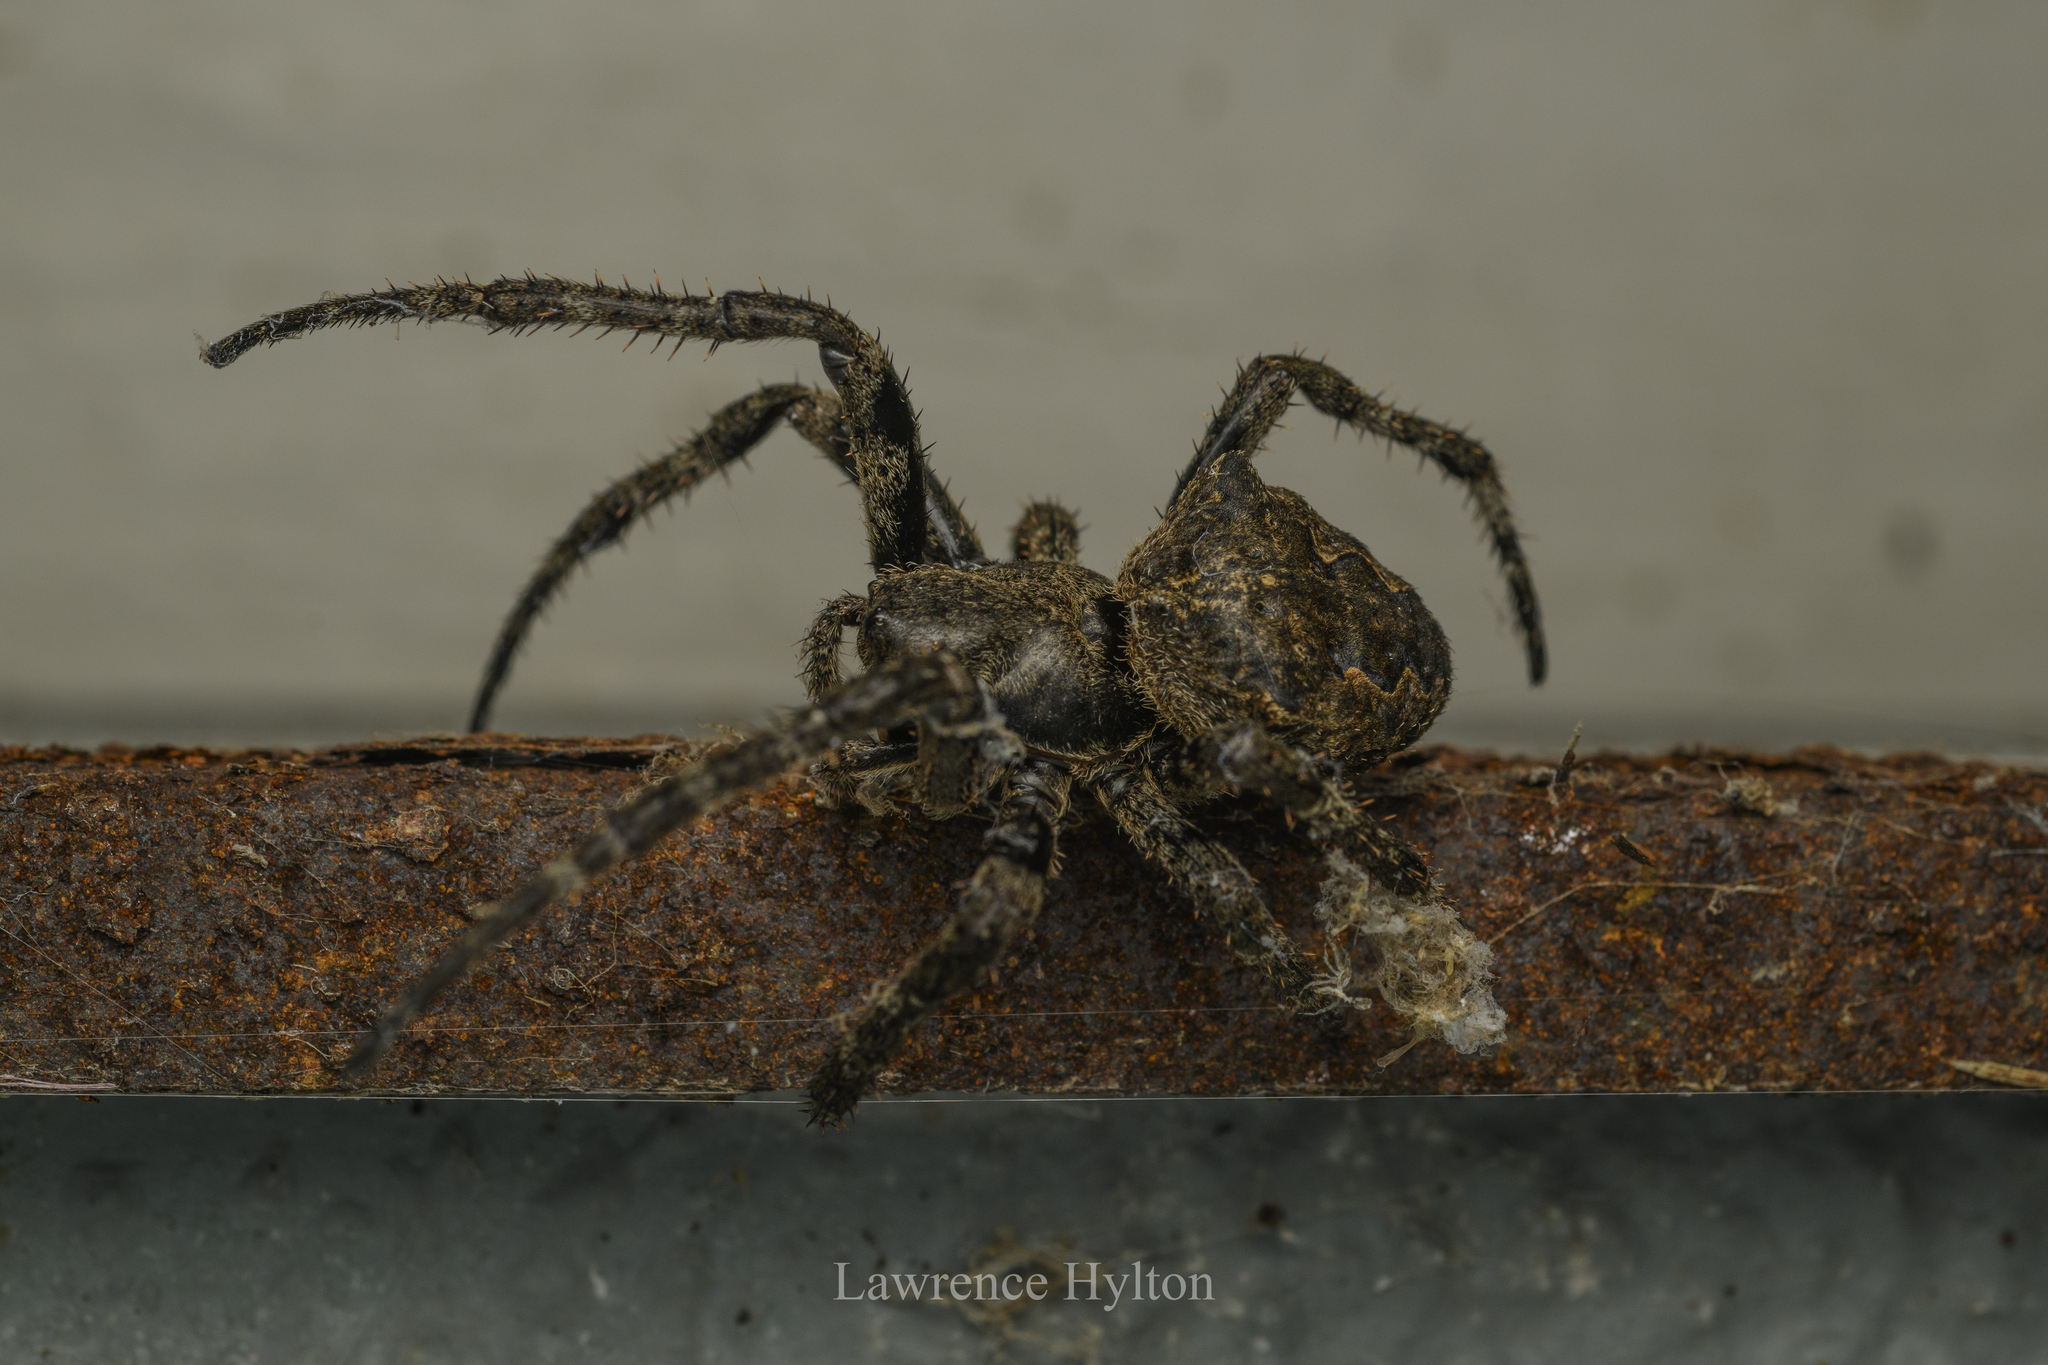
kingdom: Animalia
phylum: Arthropoda
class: Arachnida
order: Araneae
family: Araneidae
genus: Araneus
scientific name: Araneus ventricosus
